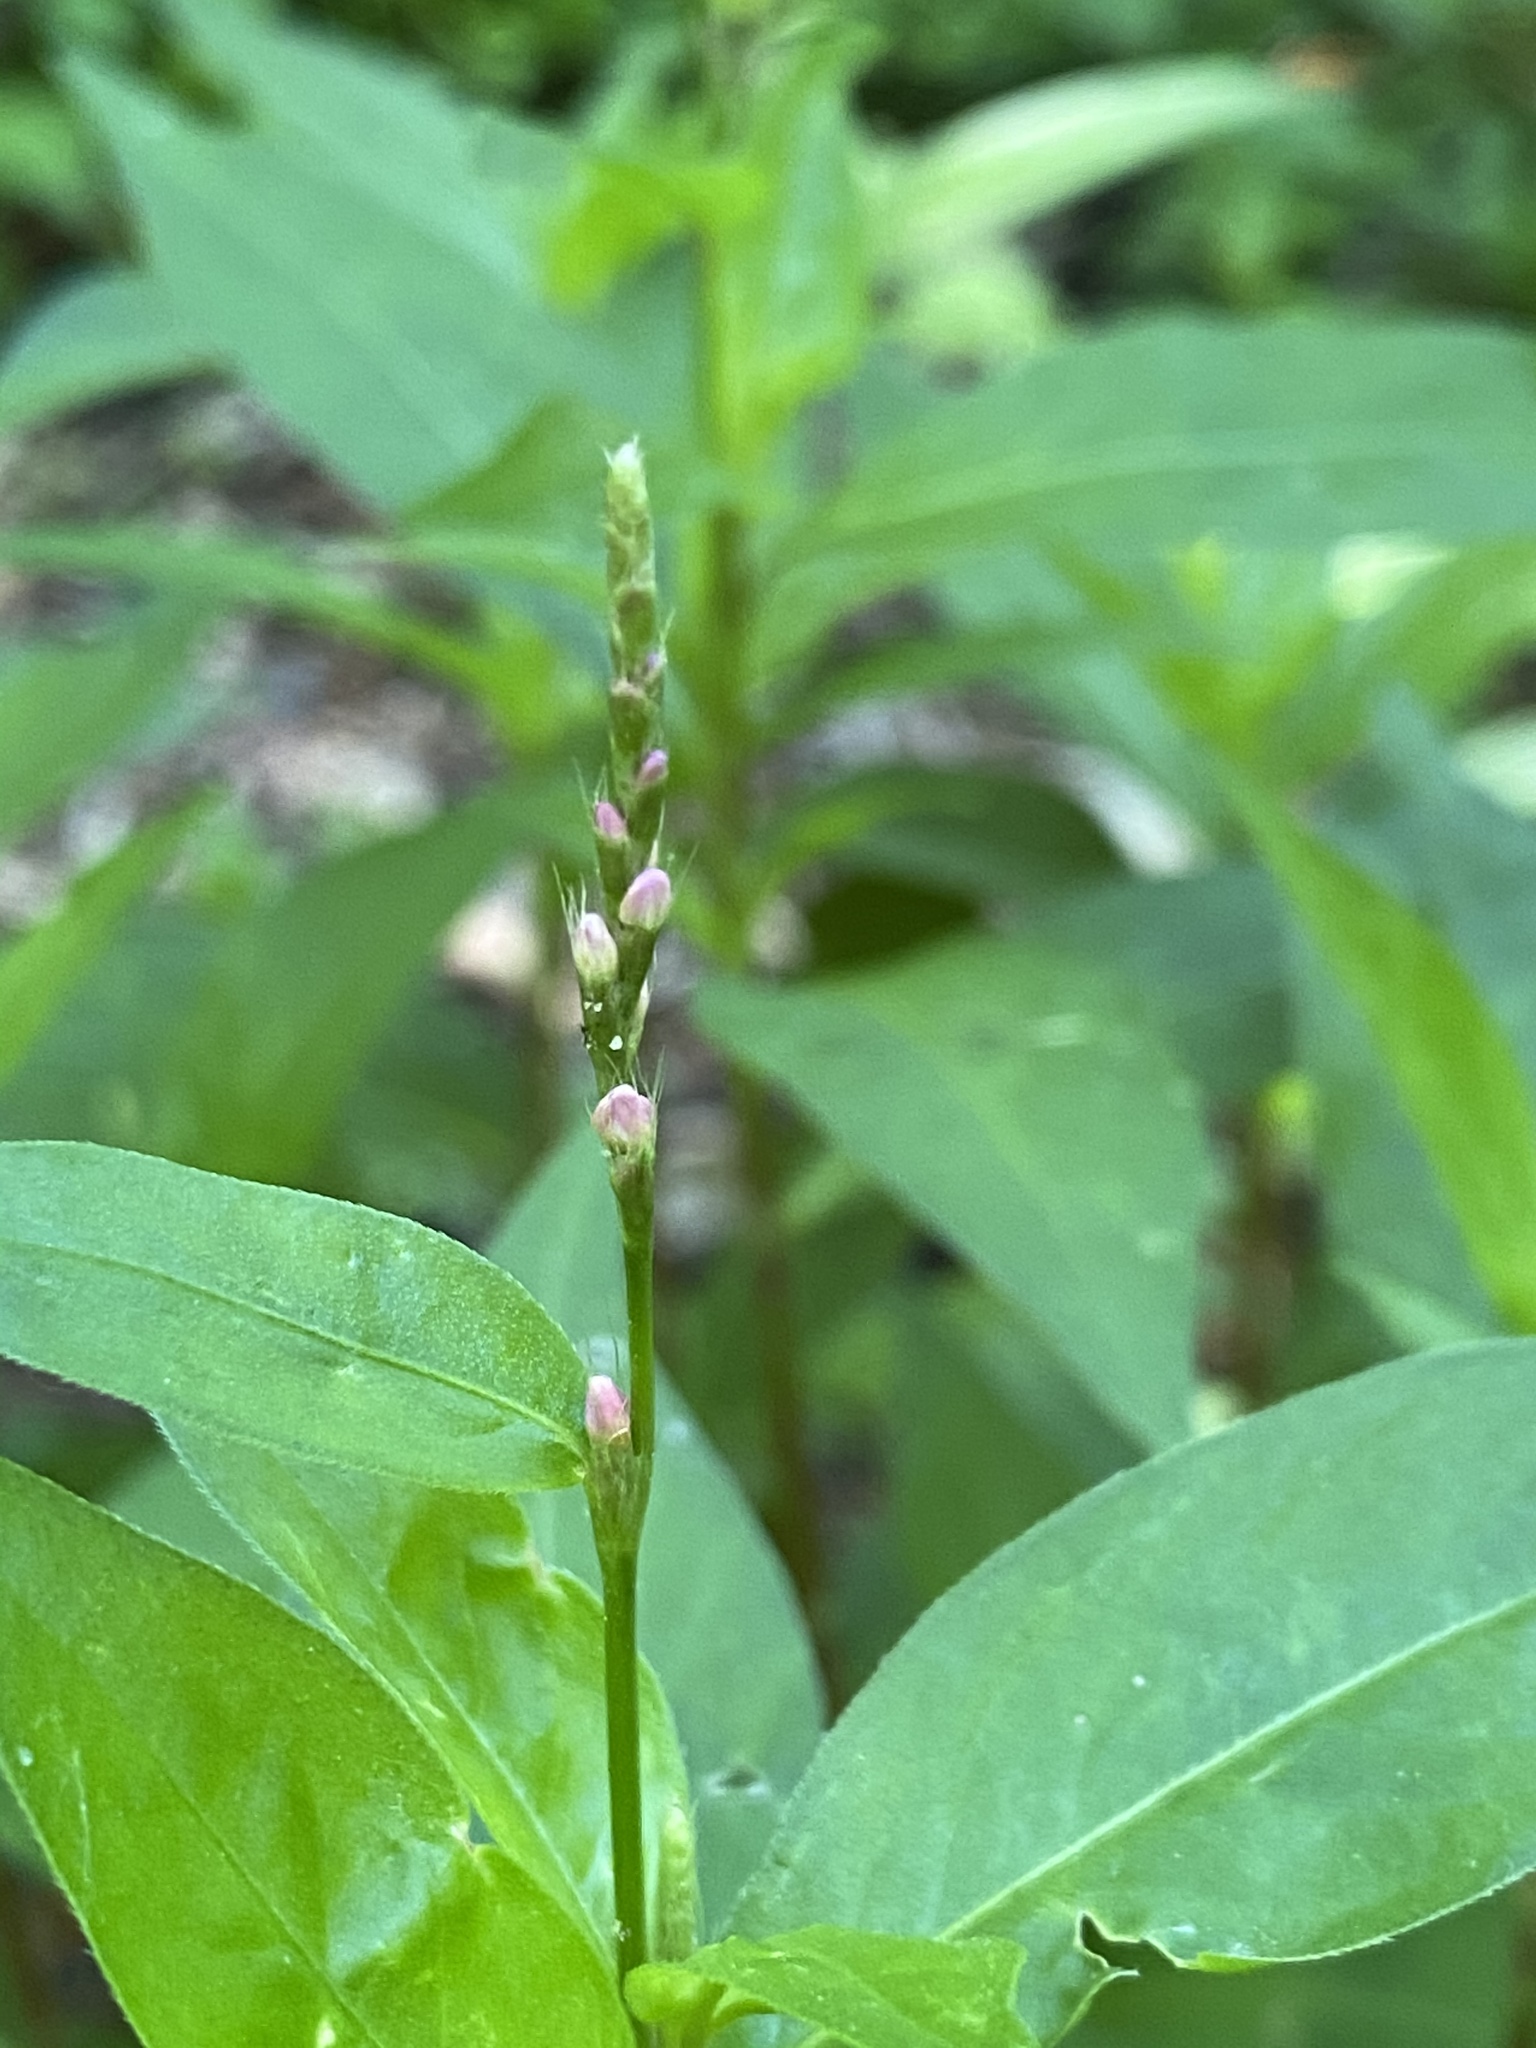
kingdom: Plantae
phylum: Tracheophyta
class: Magnoliopsida
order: Caryophyllales
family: Polygonaceae
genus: Persicaria
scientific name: Persicaria longiseta
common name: Bristly lady's-thumb
